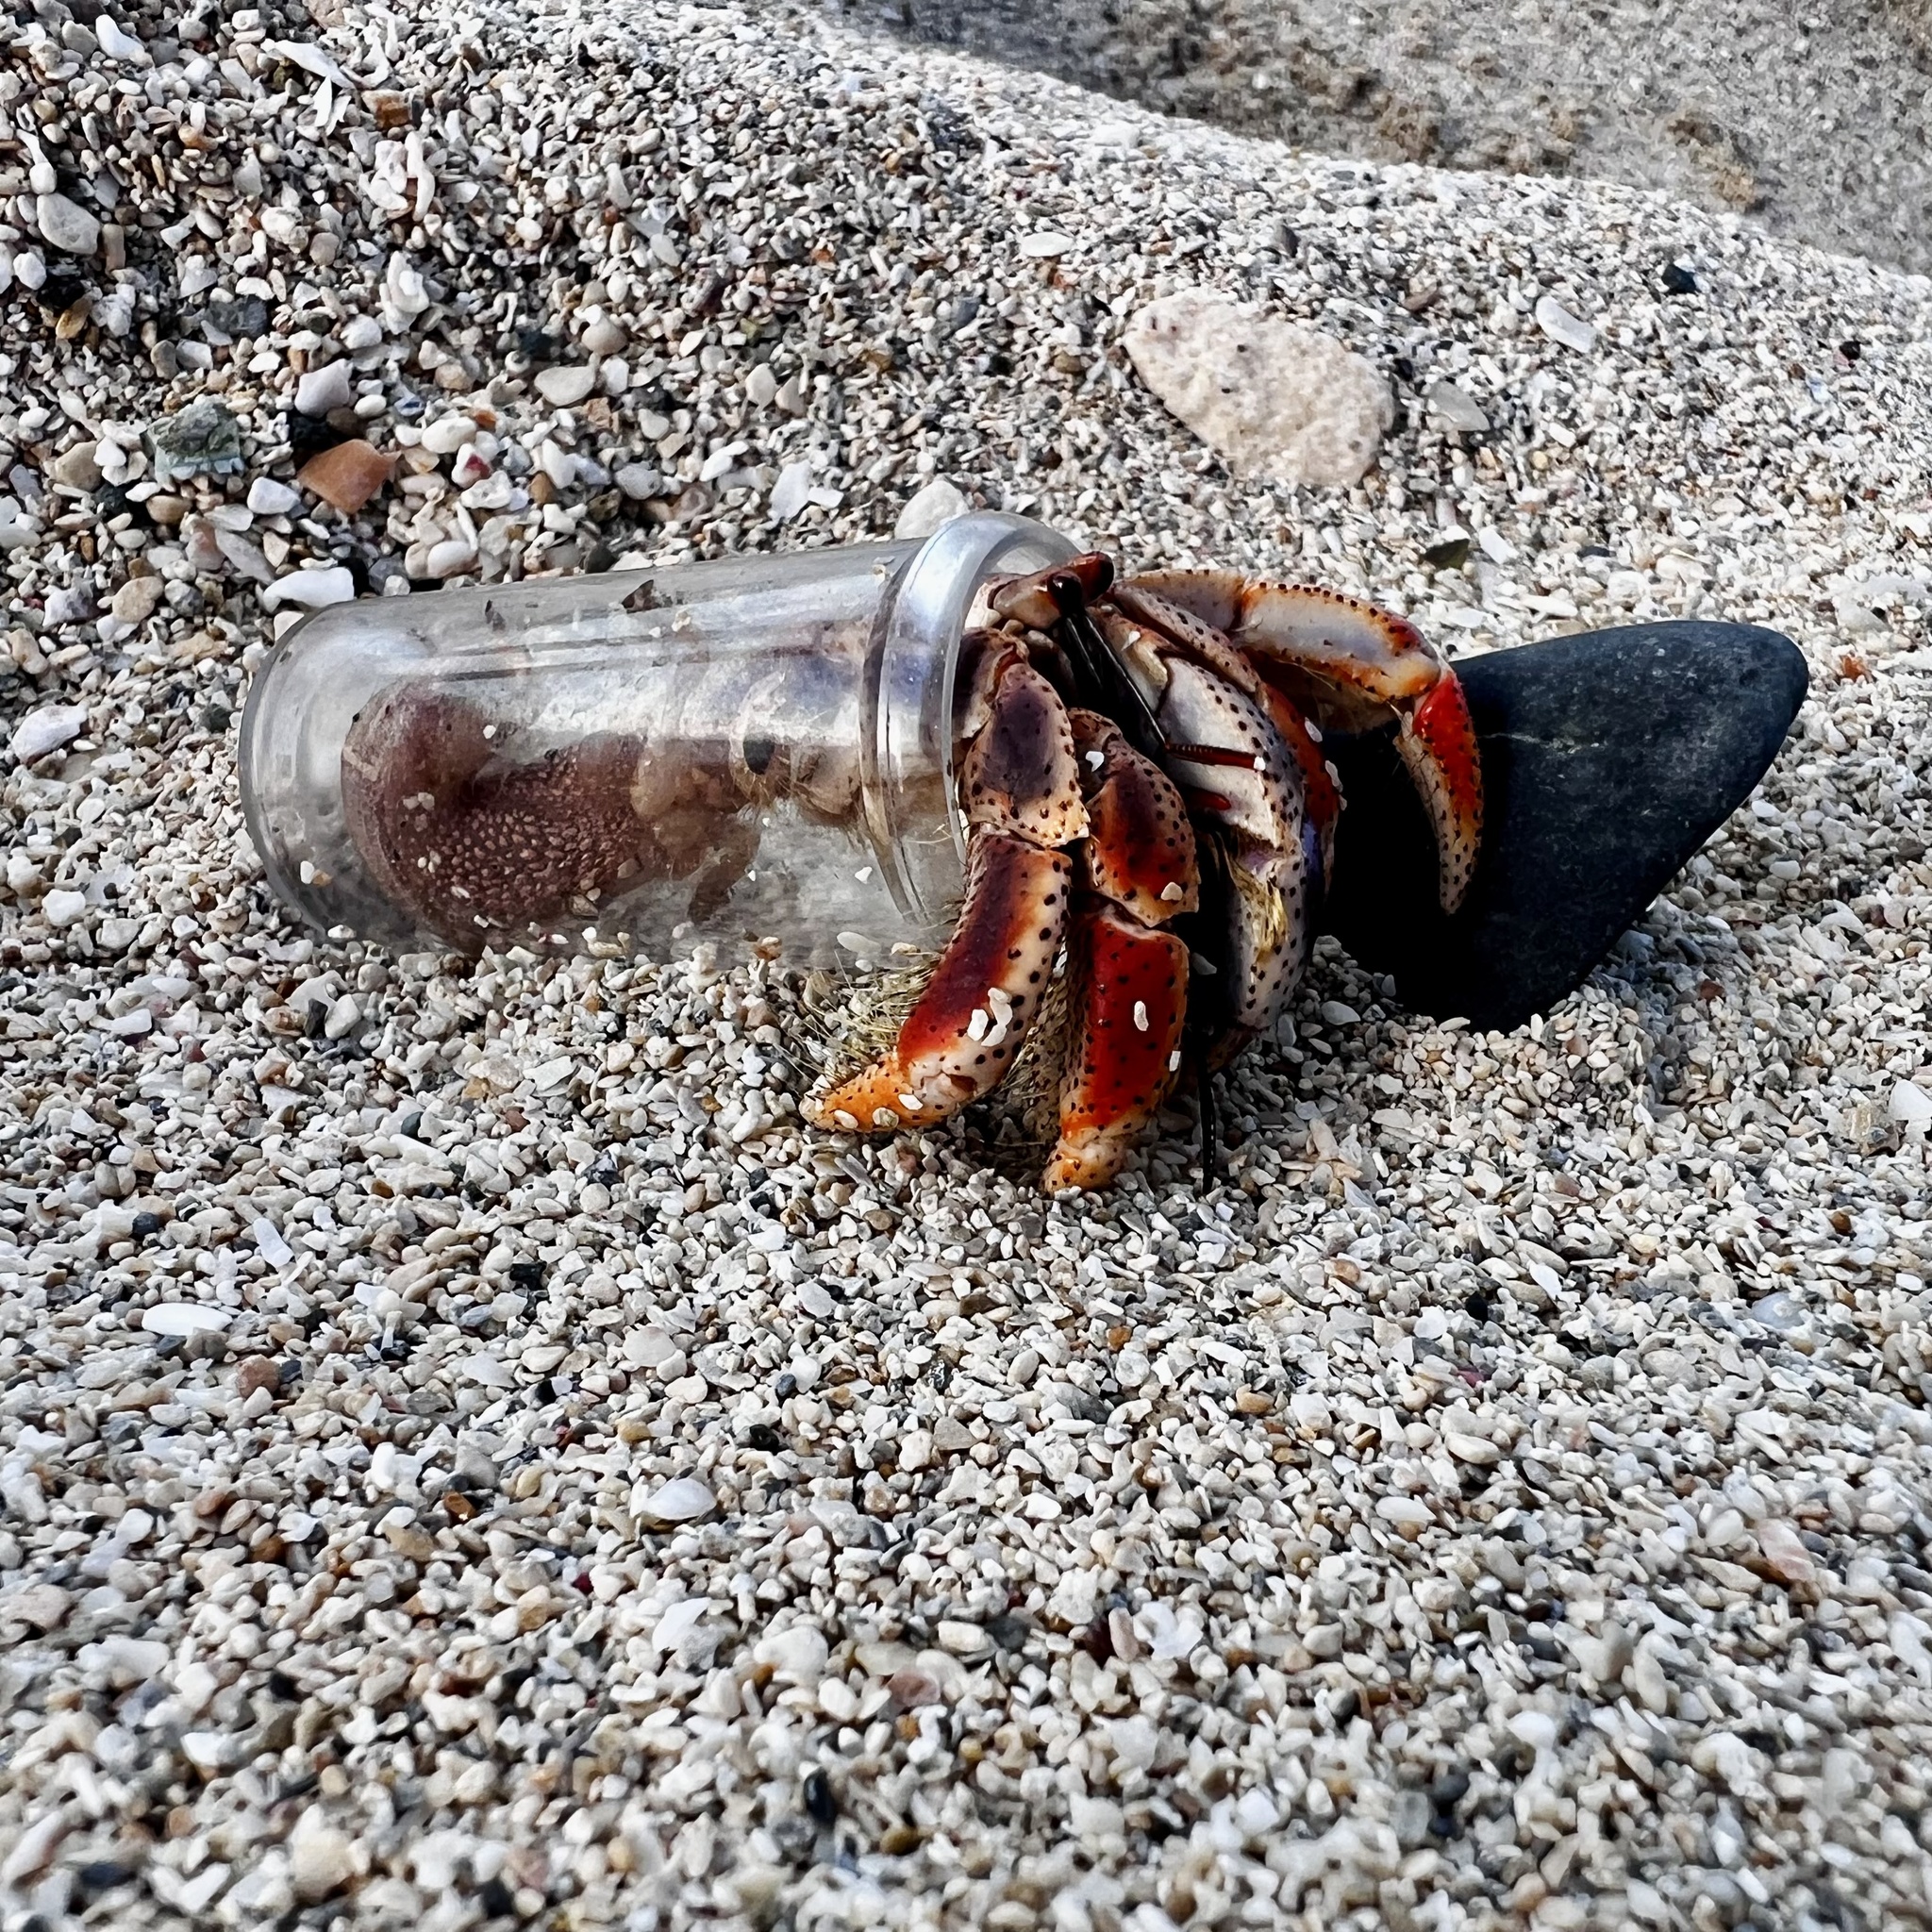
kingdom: Animalia
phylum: Arthropoda
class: Malacostraca
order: Decapoda
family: Coenobitidae
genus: Coenobita
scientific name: Coenobita clypeatus
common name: Caribbean hermit crab
